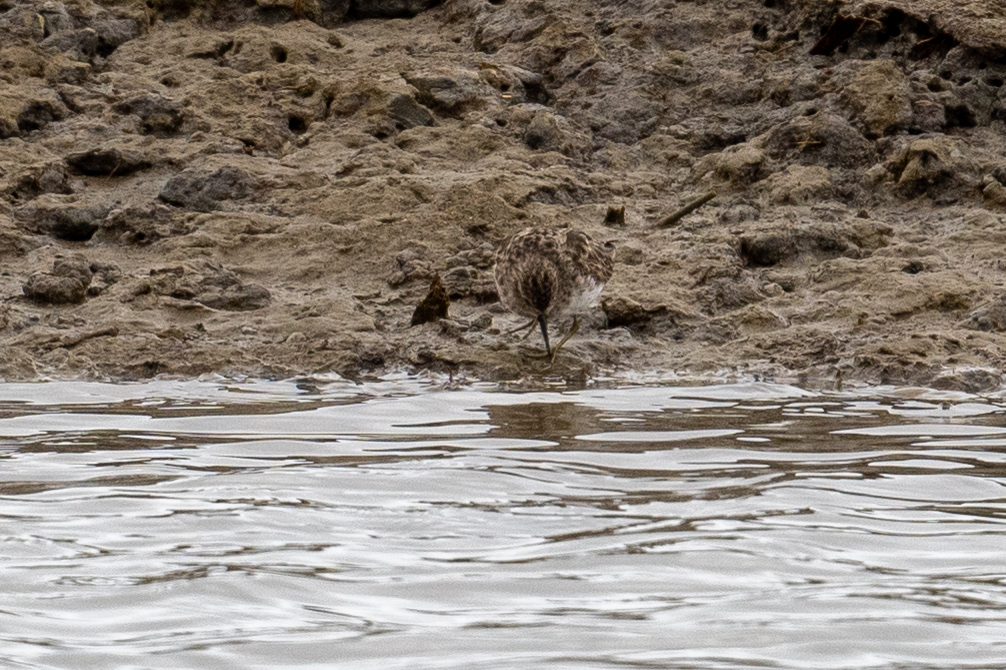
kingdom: Animalia
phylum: Chordata
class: Aves
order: Charadriiformes
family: Scolopacidae
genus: Calidris
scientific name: Calidris minutilla
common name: Least sandpiper
